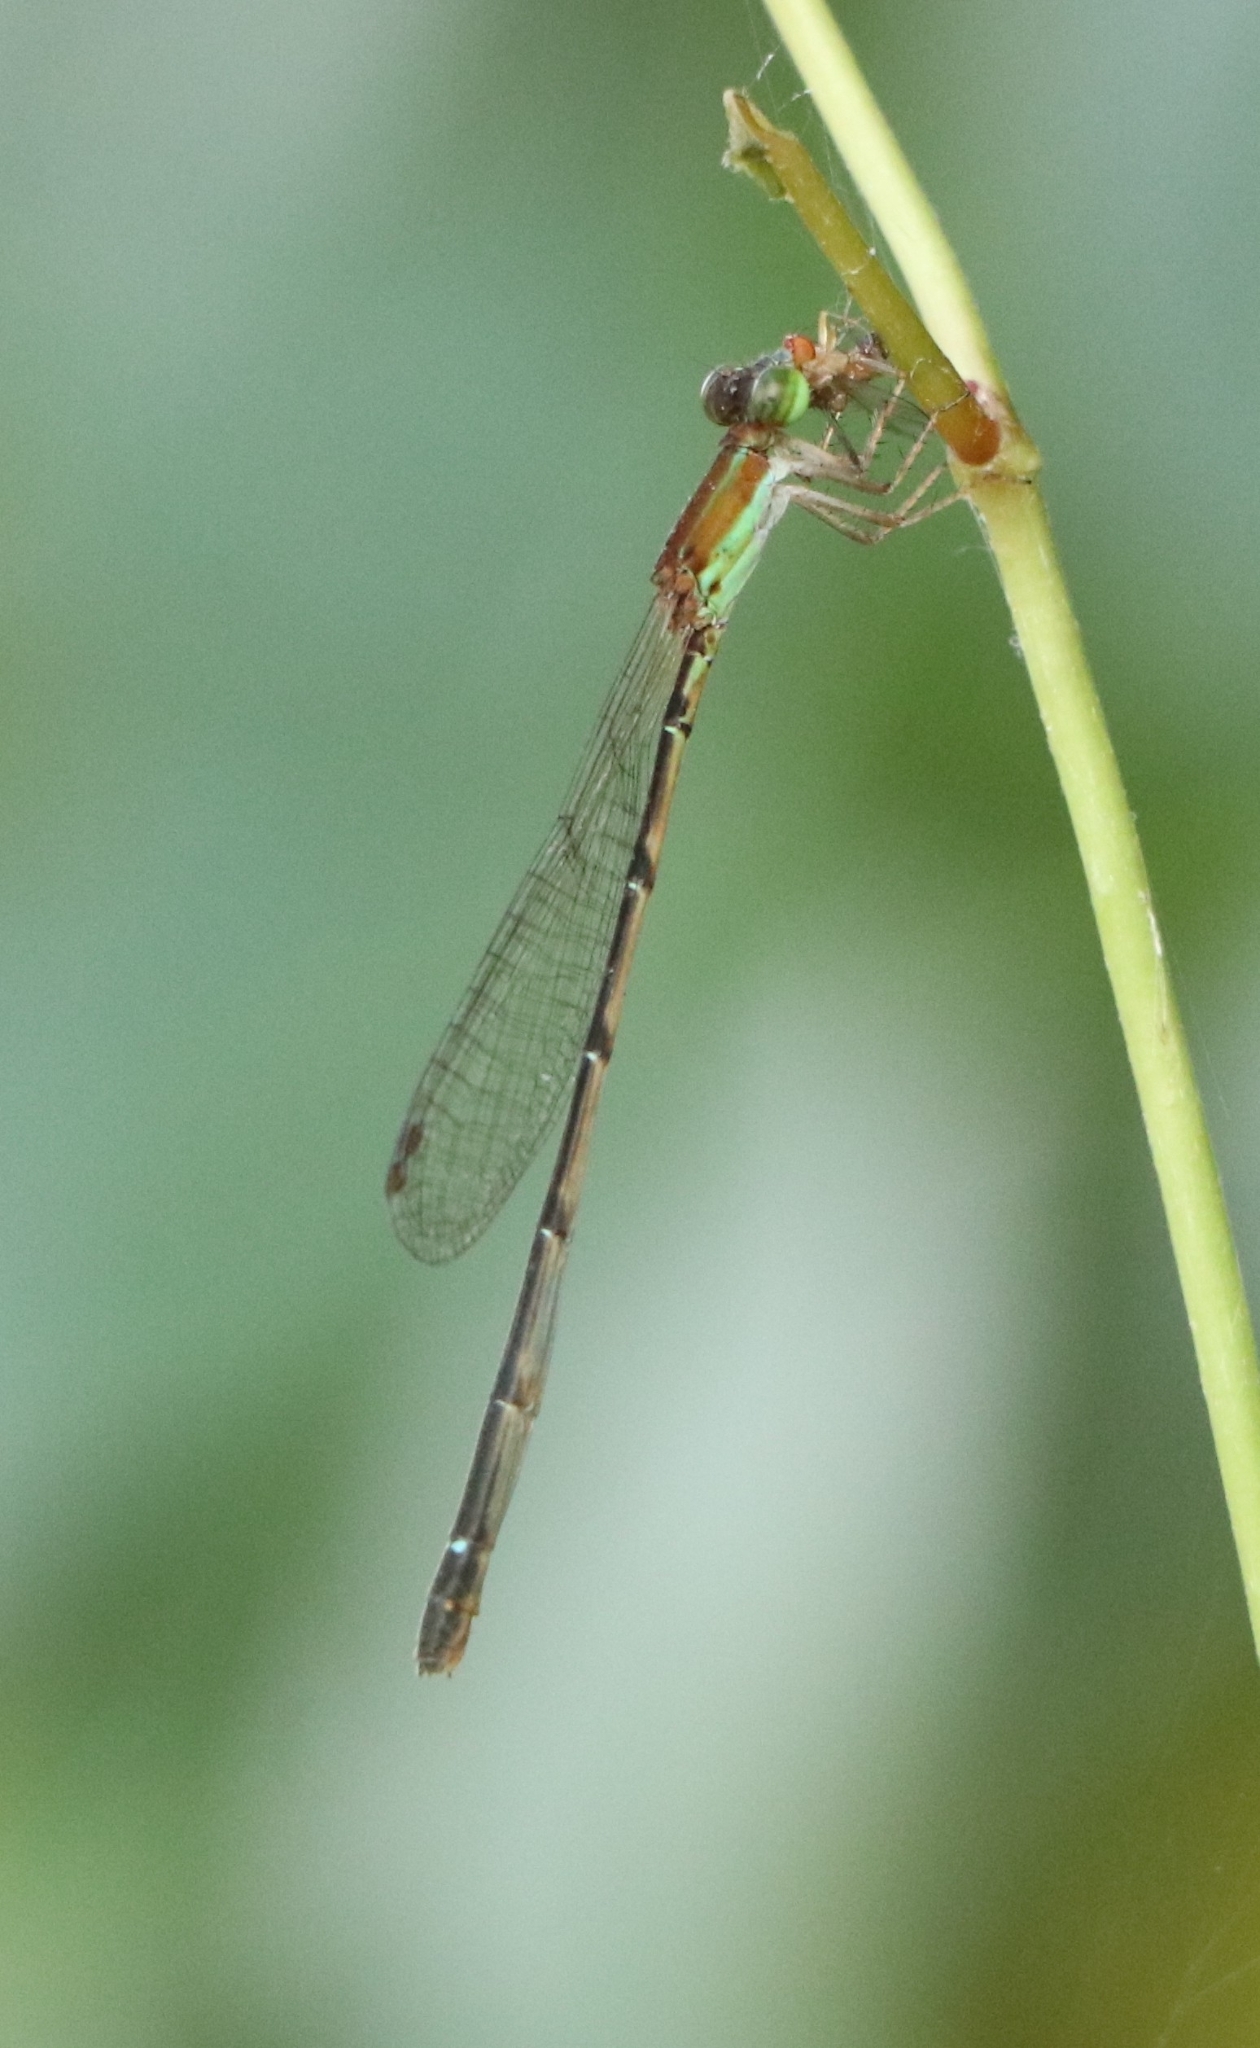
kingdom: Animalia
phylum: Arthropoda
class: Insecta
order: Odonata
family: Coenagrionidae
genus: Mortonagrion
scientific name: Mortonagrion varralli
